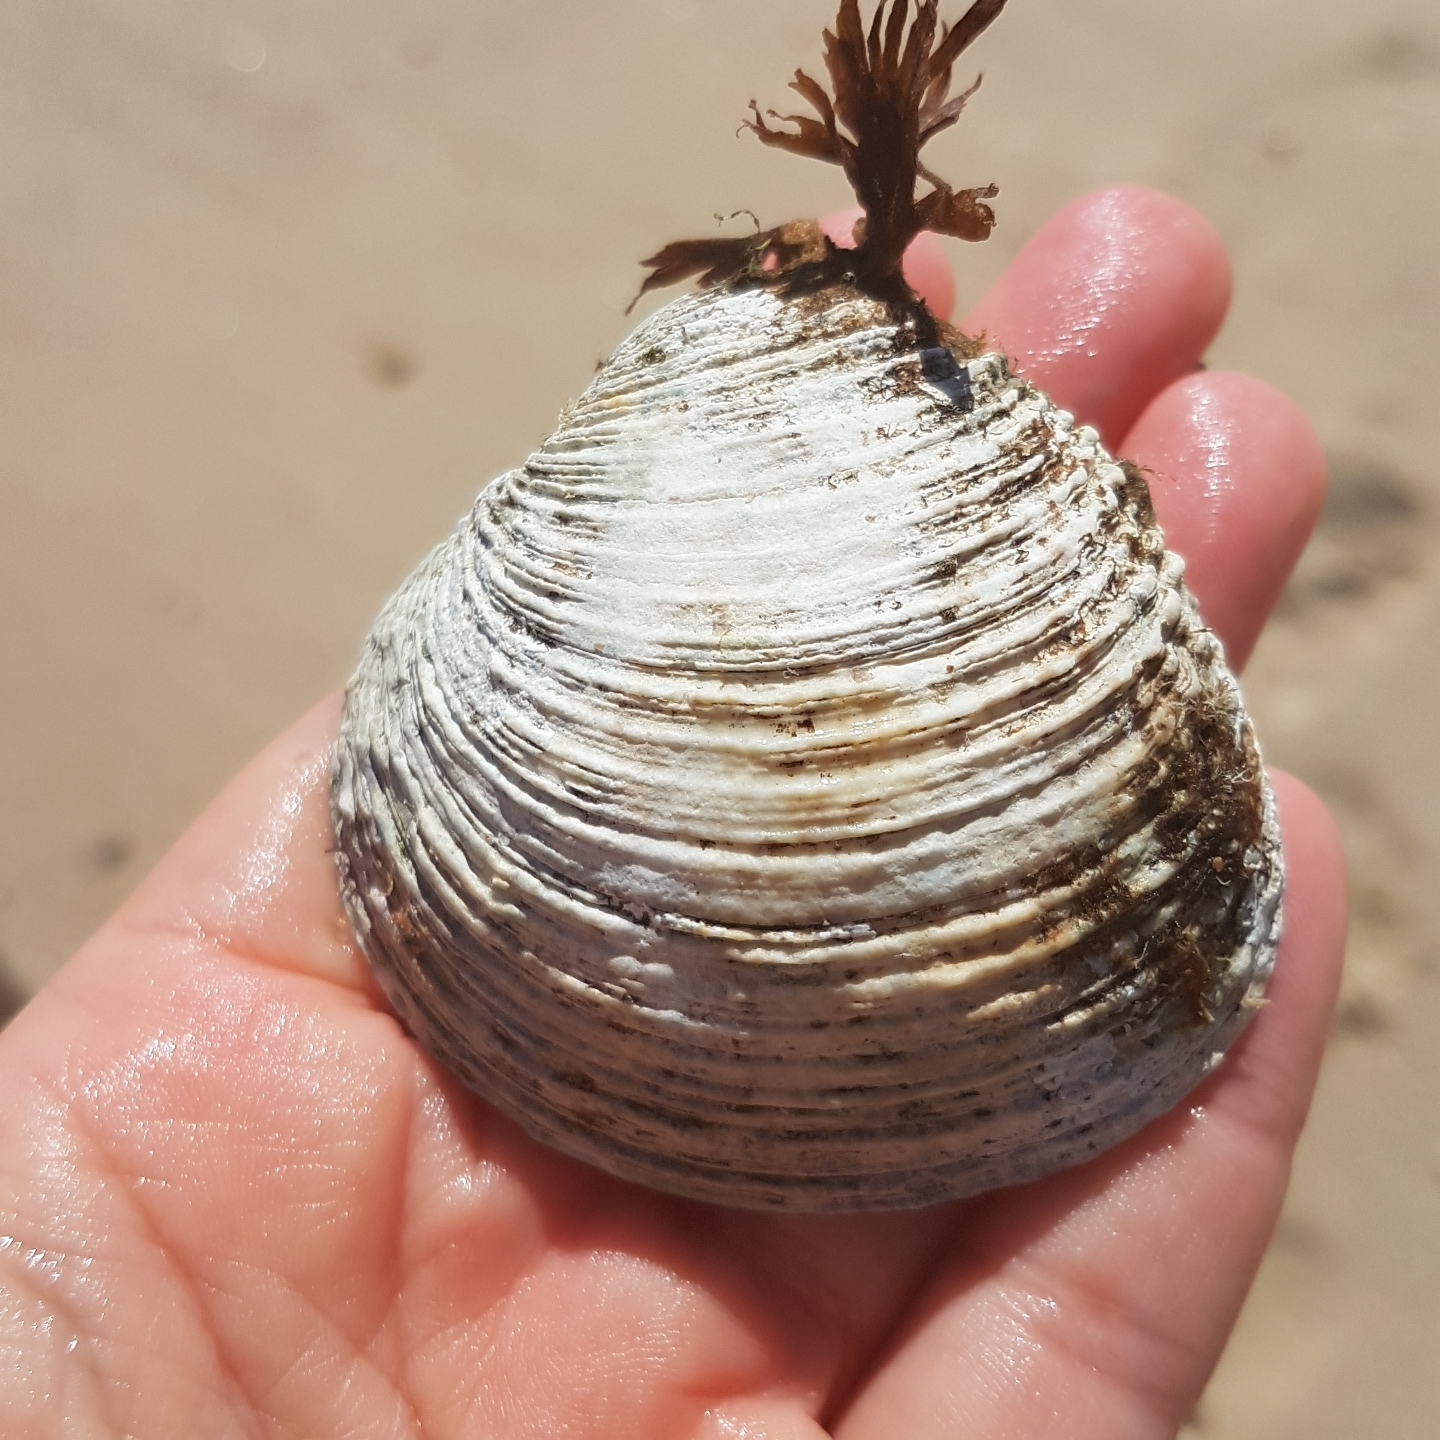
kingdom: Animalia
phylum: Mollusca
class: Bivalvia
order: Venerida
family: Veneridae
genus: Venus
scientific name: Venus verrucosa
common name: Warty venus
